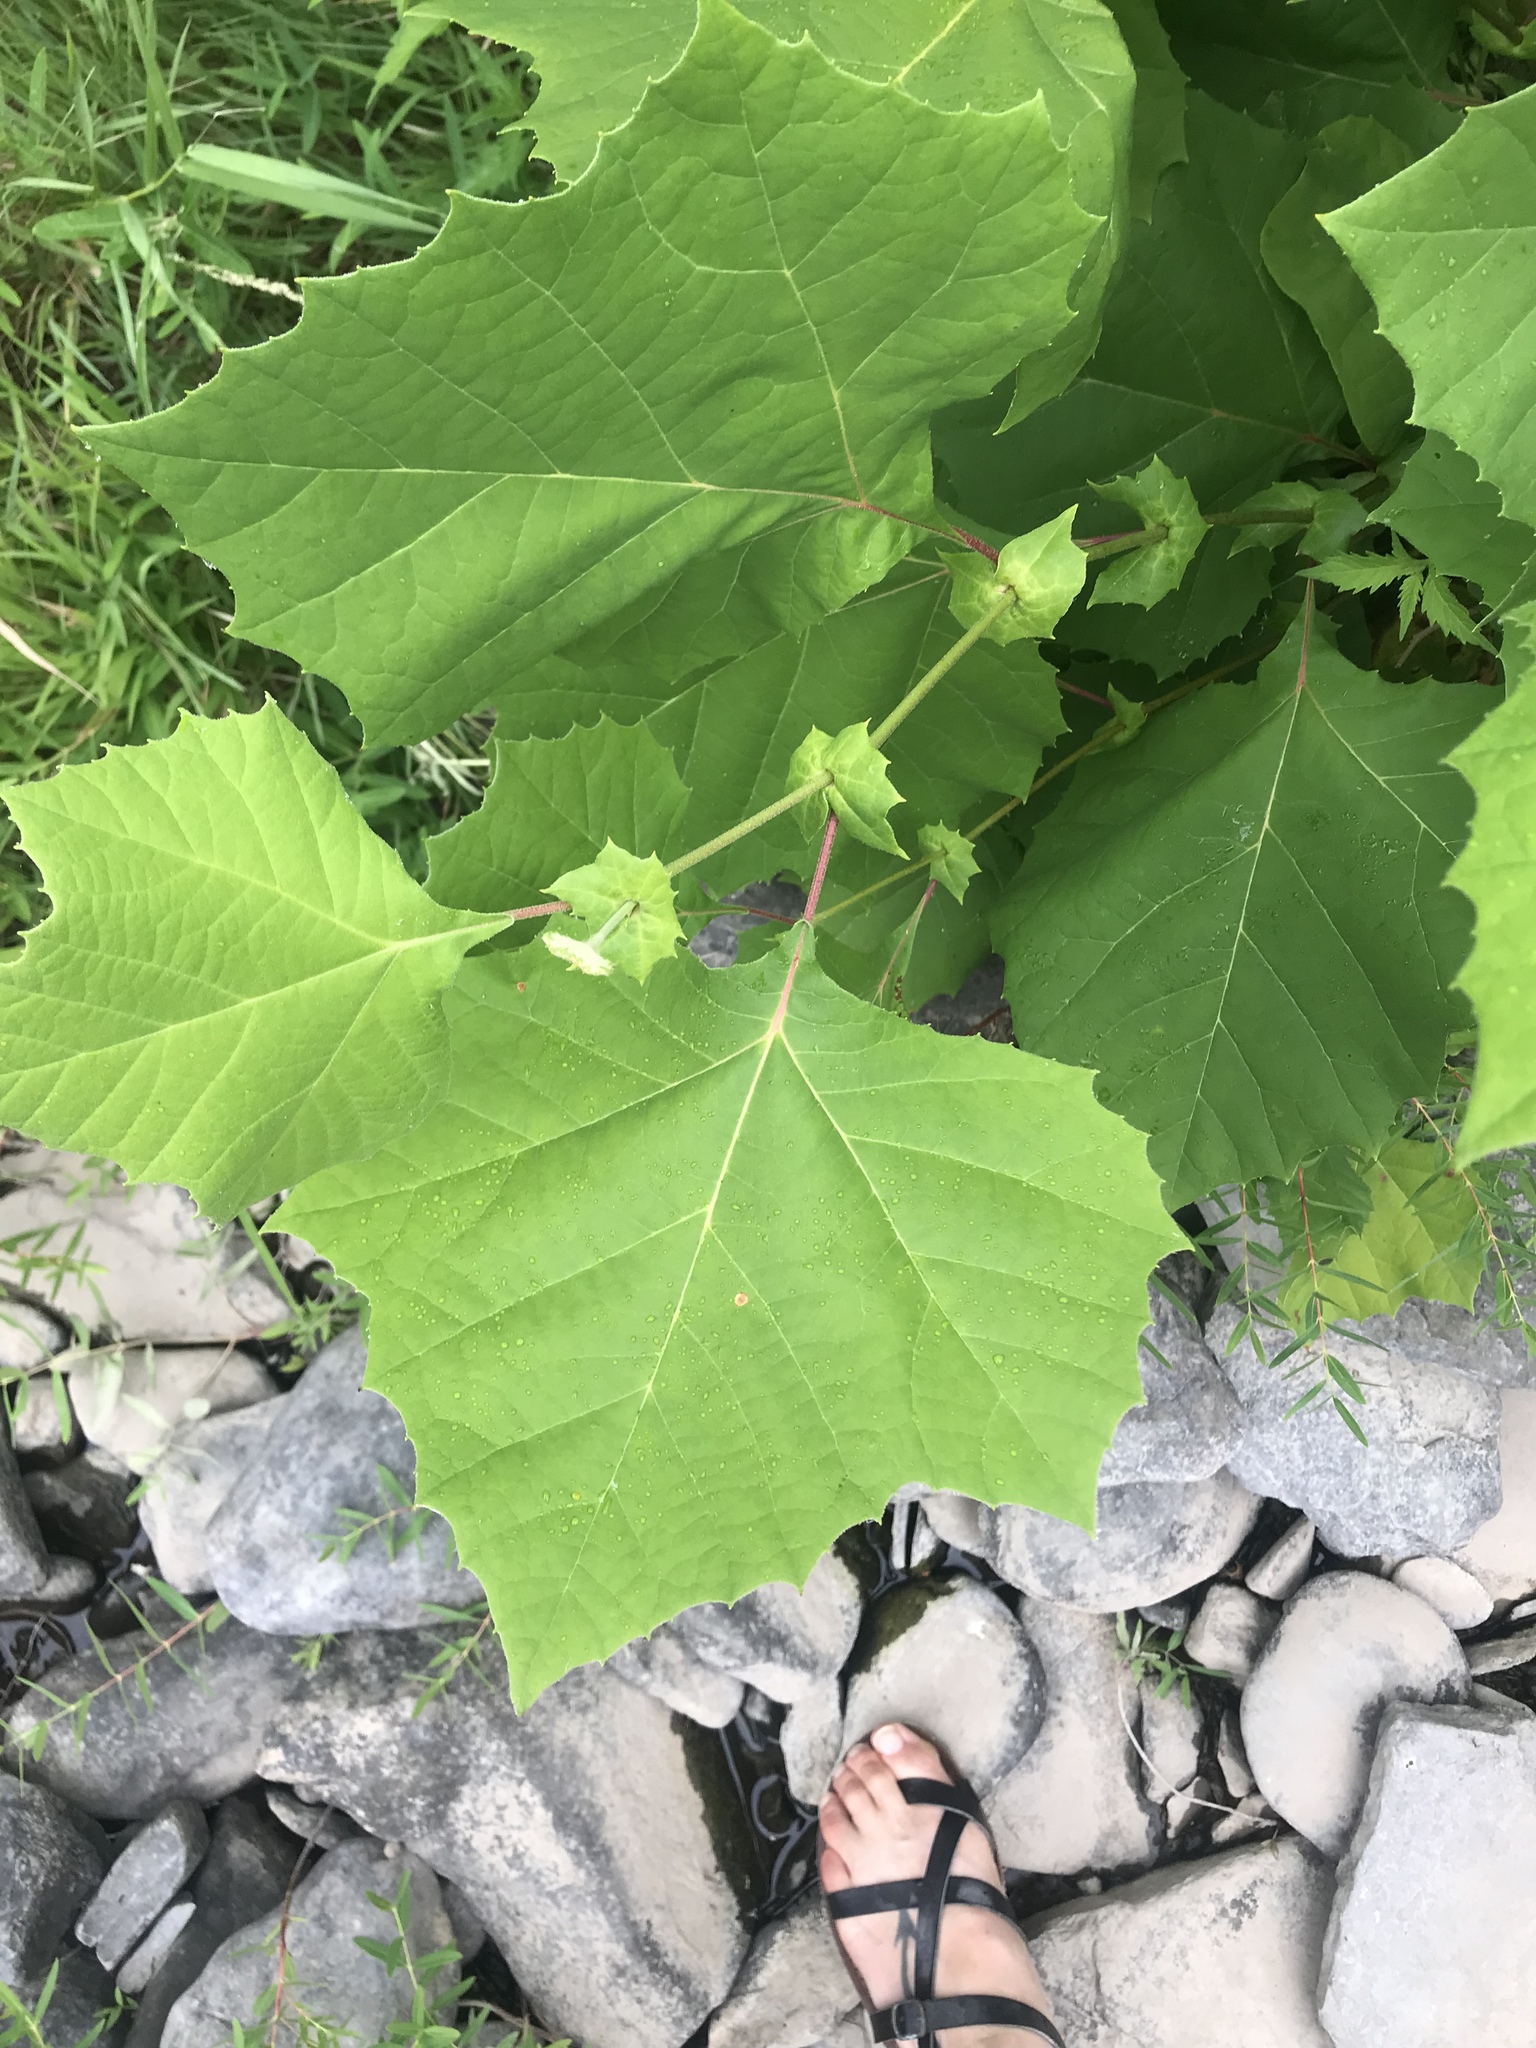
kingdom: Plantae
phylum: Tracheophyta
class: Magnoliopsida
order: Proteales
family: Platanaceae
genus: Platanus
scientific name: Platanus occidentalis
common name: American sycamore
